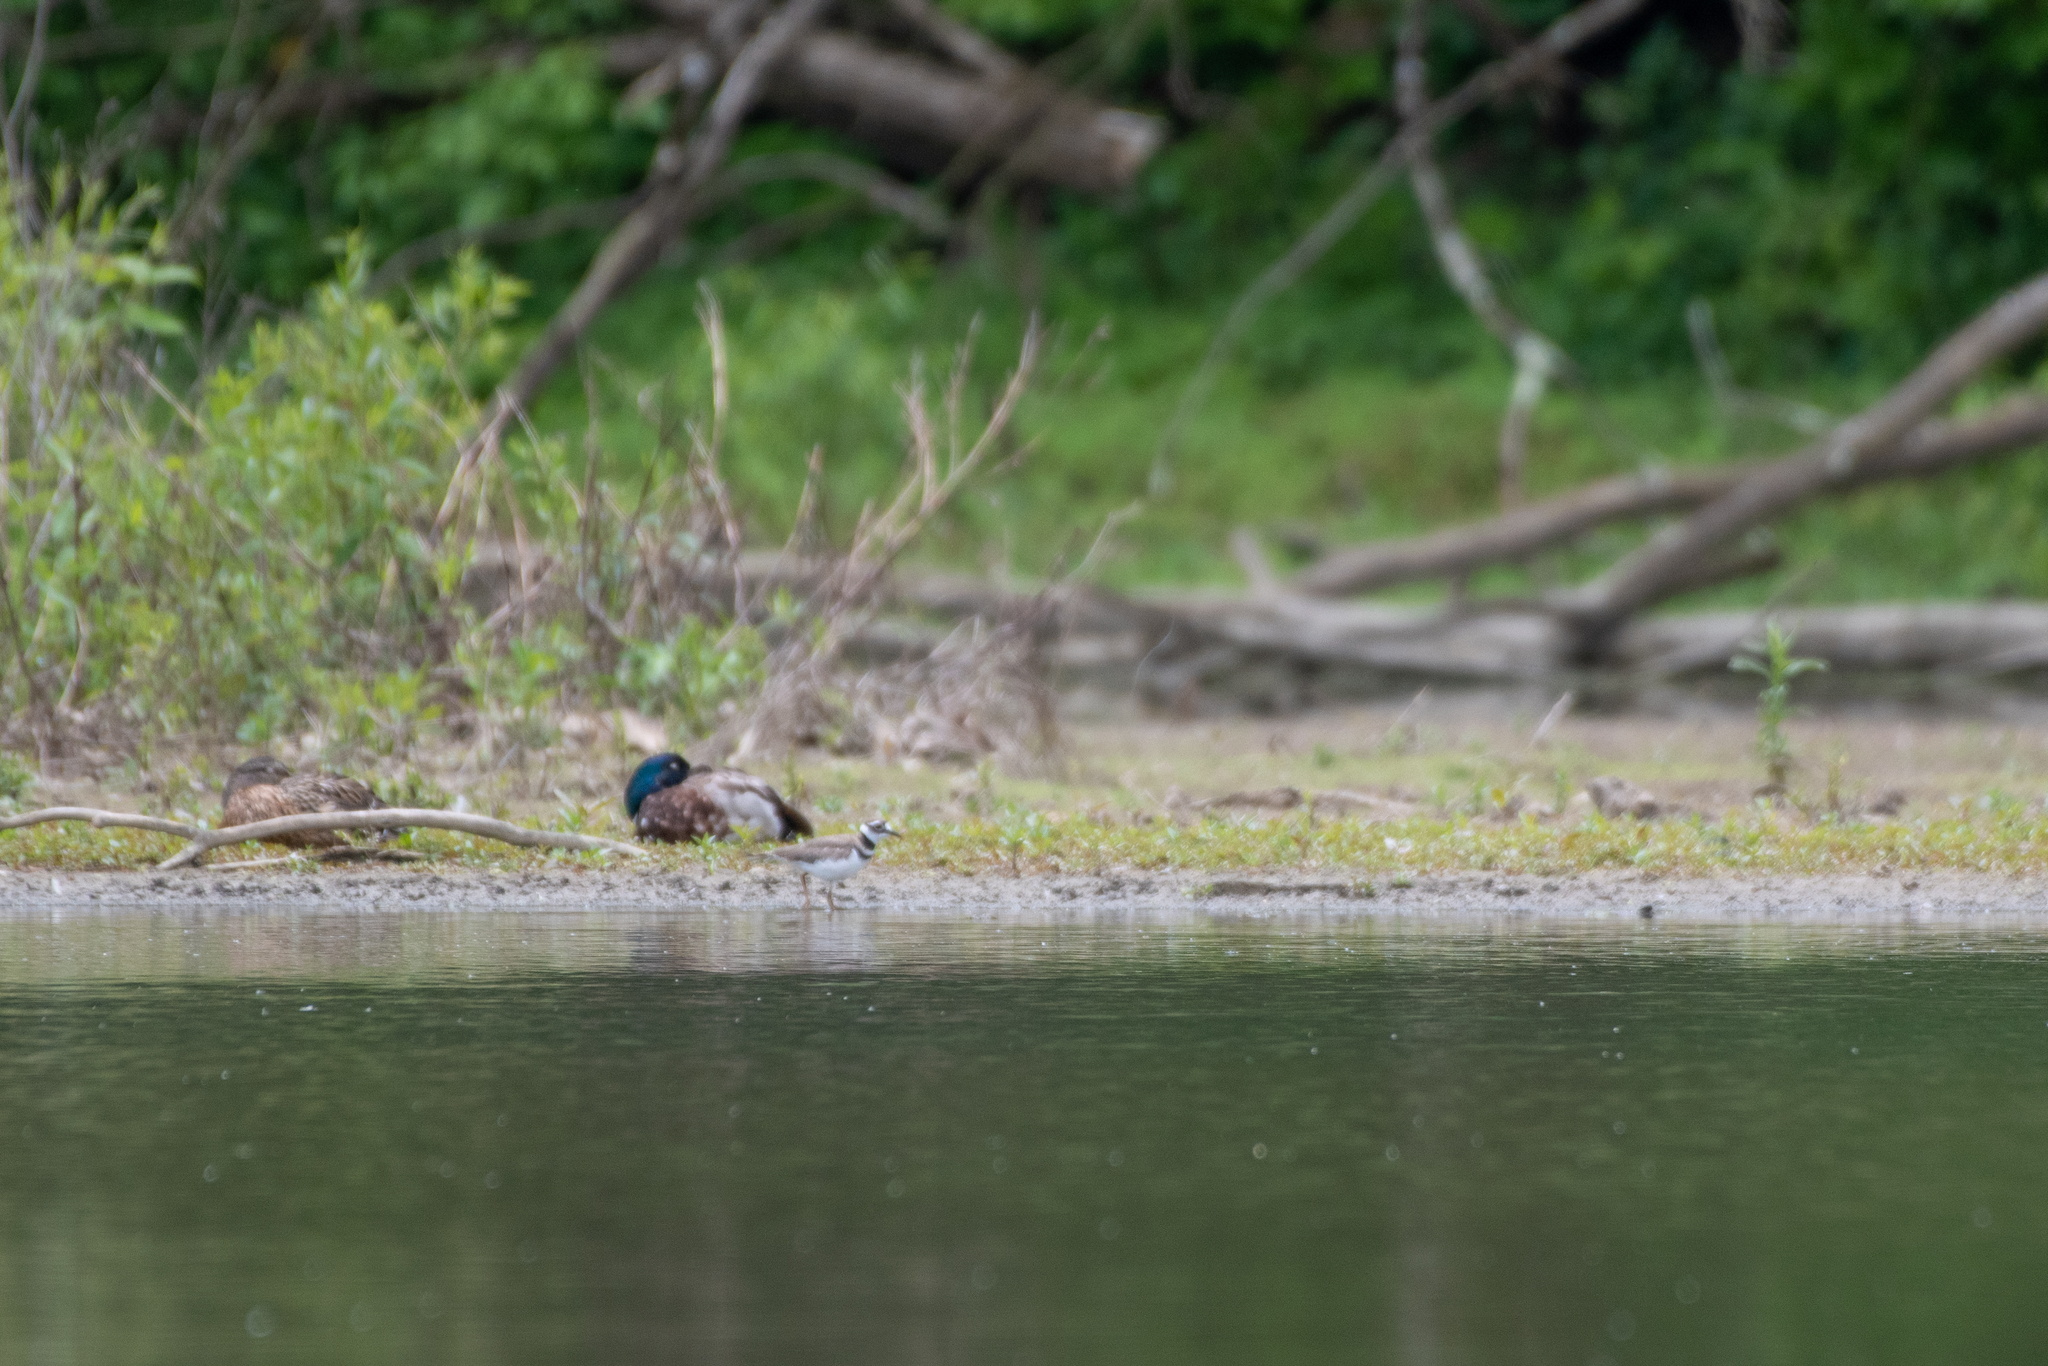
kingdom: Animalia
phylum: Chordata
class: Aves
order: Charadriiformes
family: Charadriidae
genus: Charadrius
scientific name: Charadrius vociferus
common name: Killdeer
